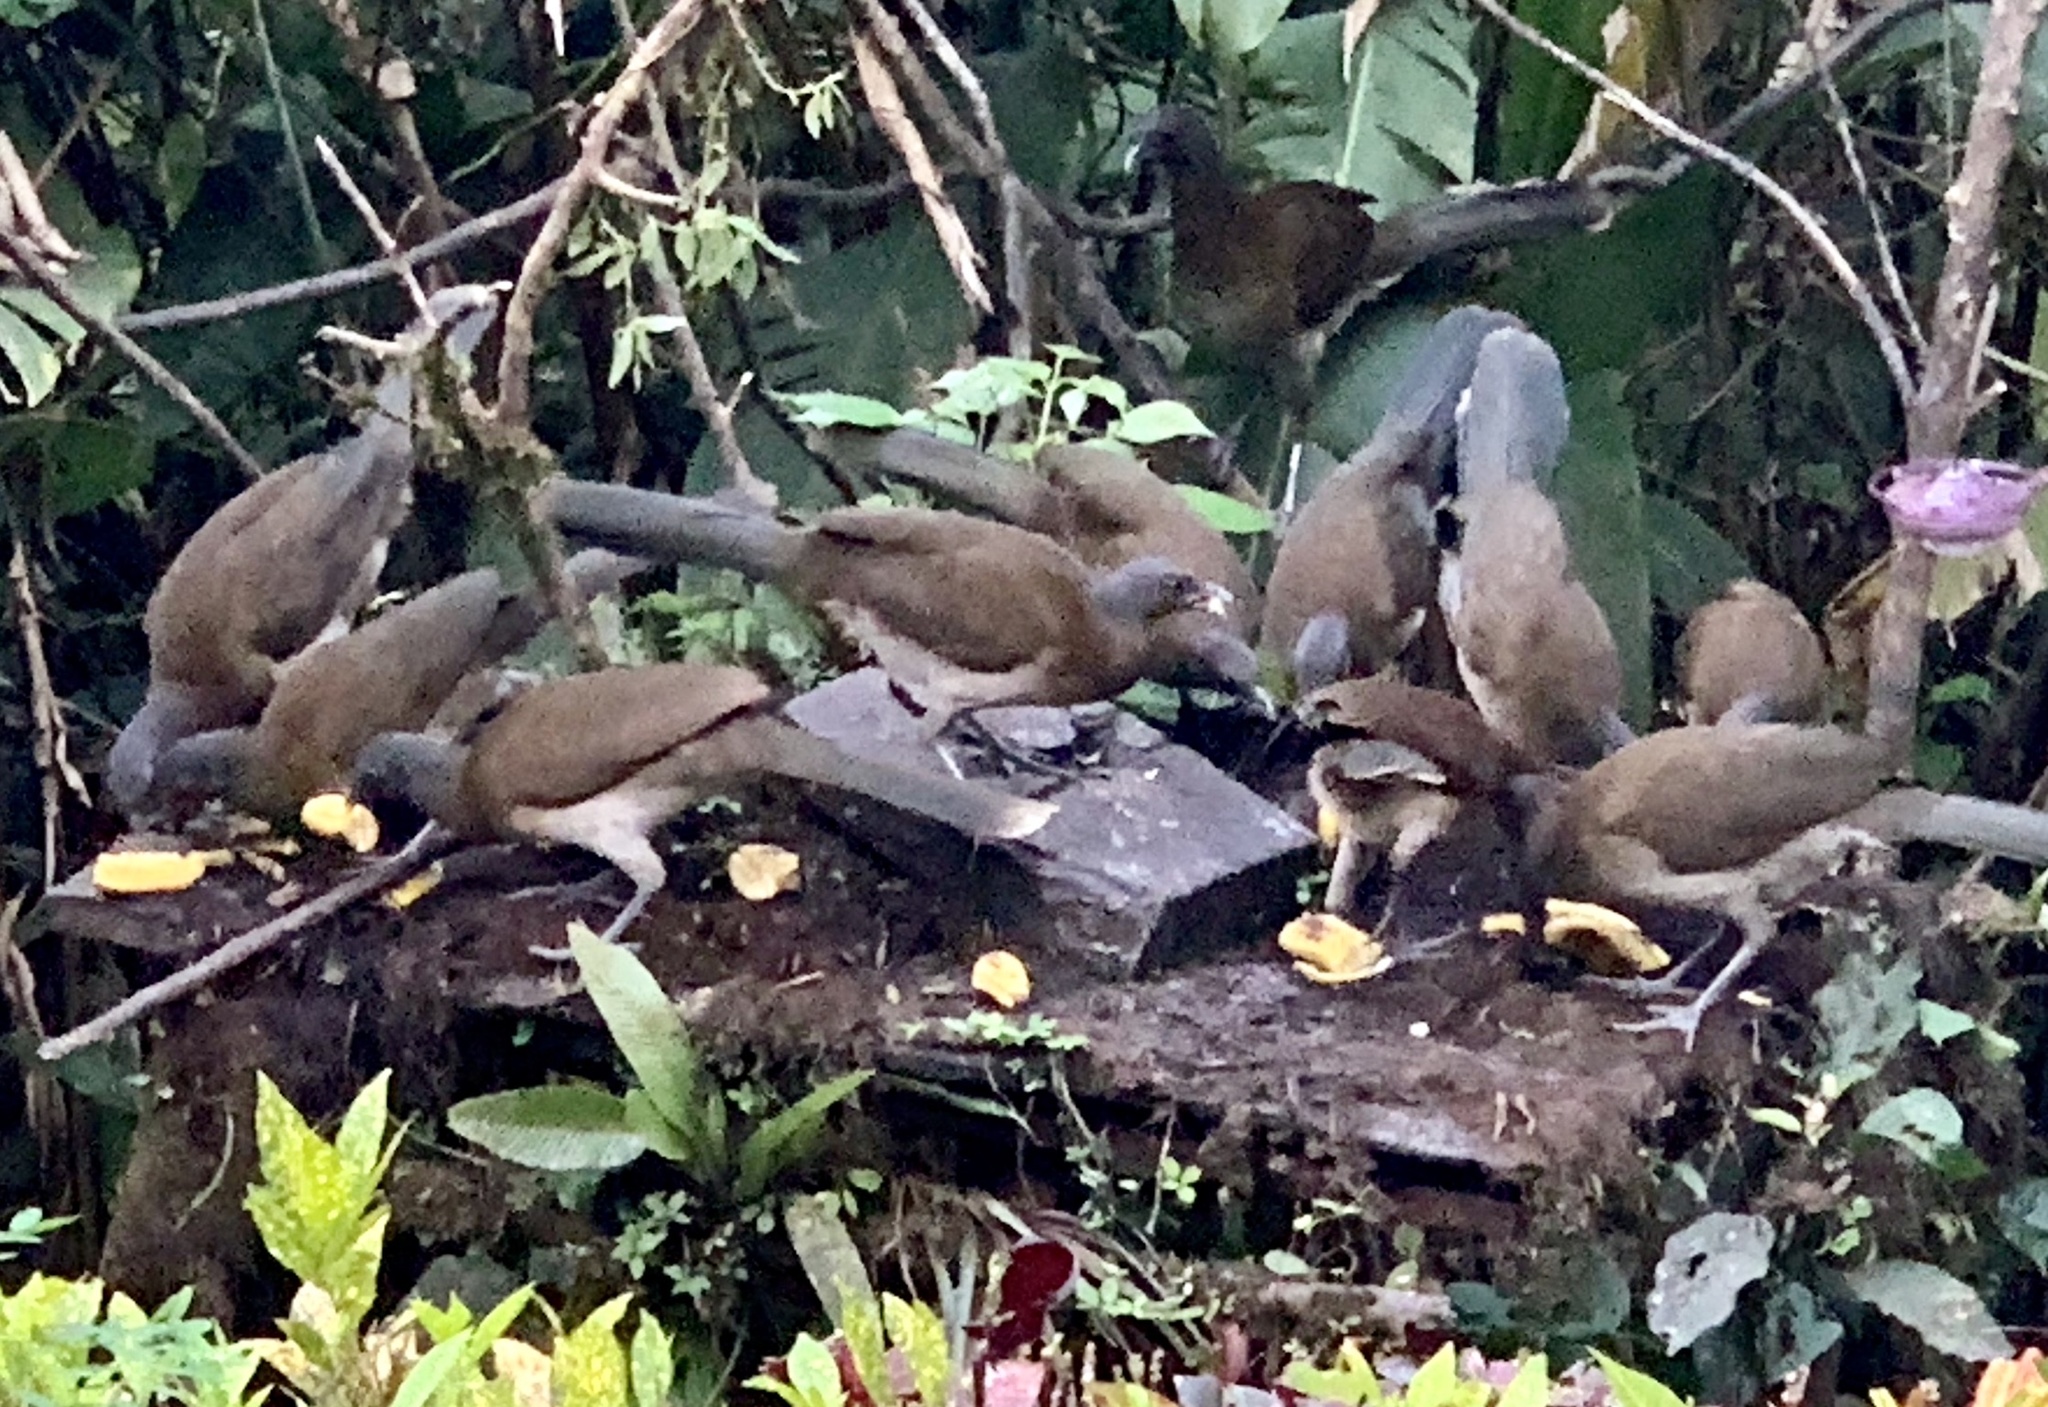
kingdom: Animalia
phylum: Chordata
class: Aves
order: Galliformes
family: Cracidae
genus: Ortalis
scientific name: Ortalis cinereiceps
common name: Grey-headed chachalaca
